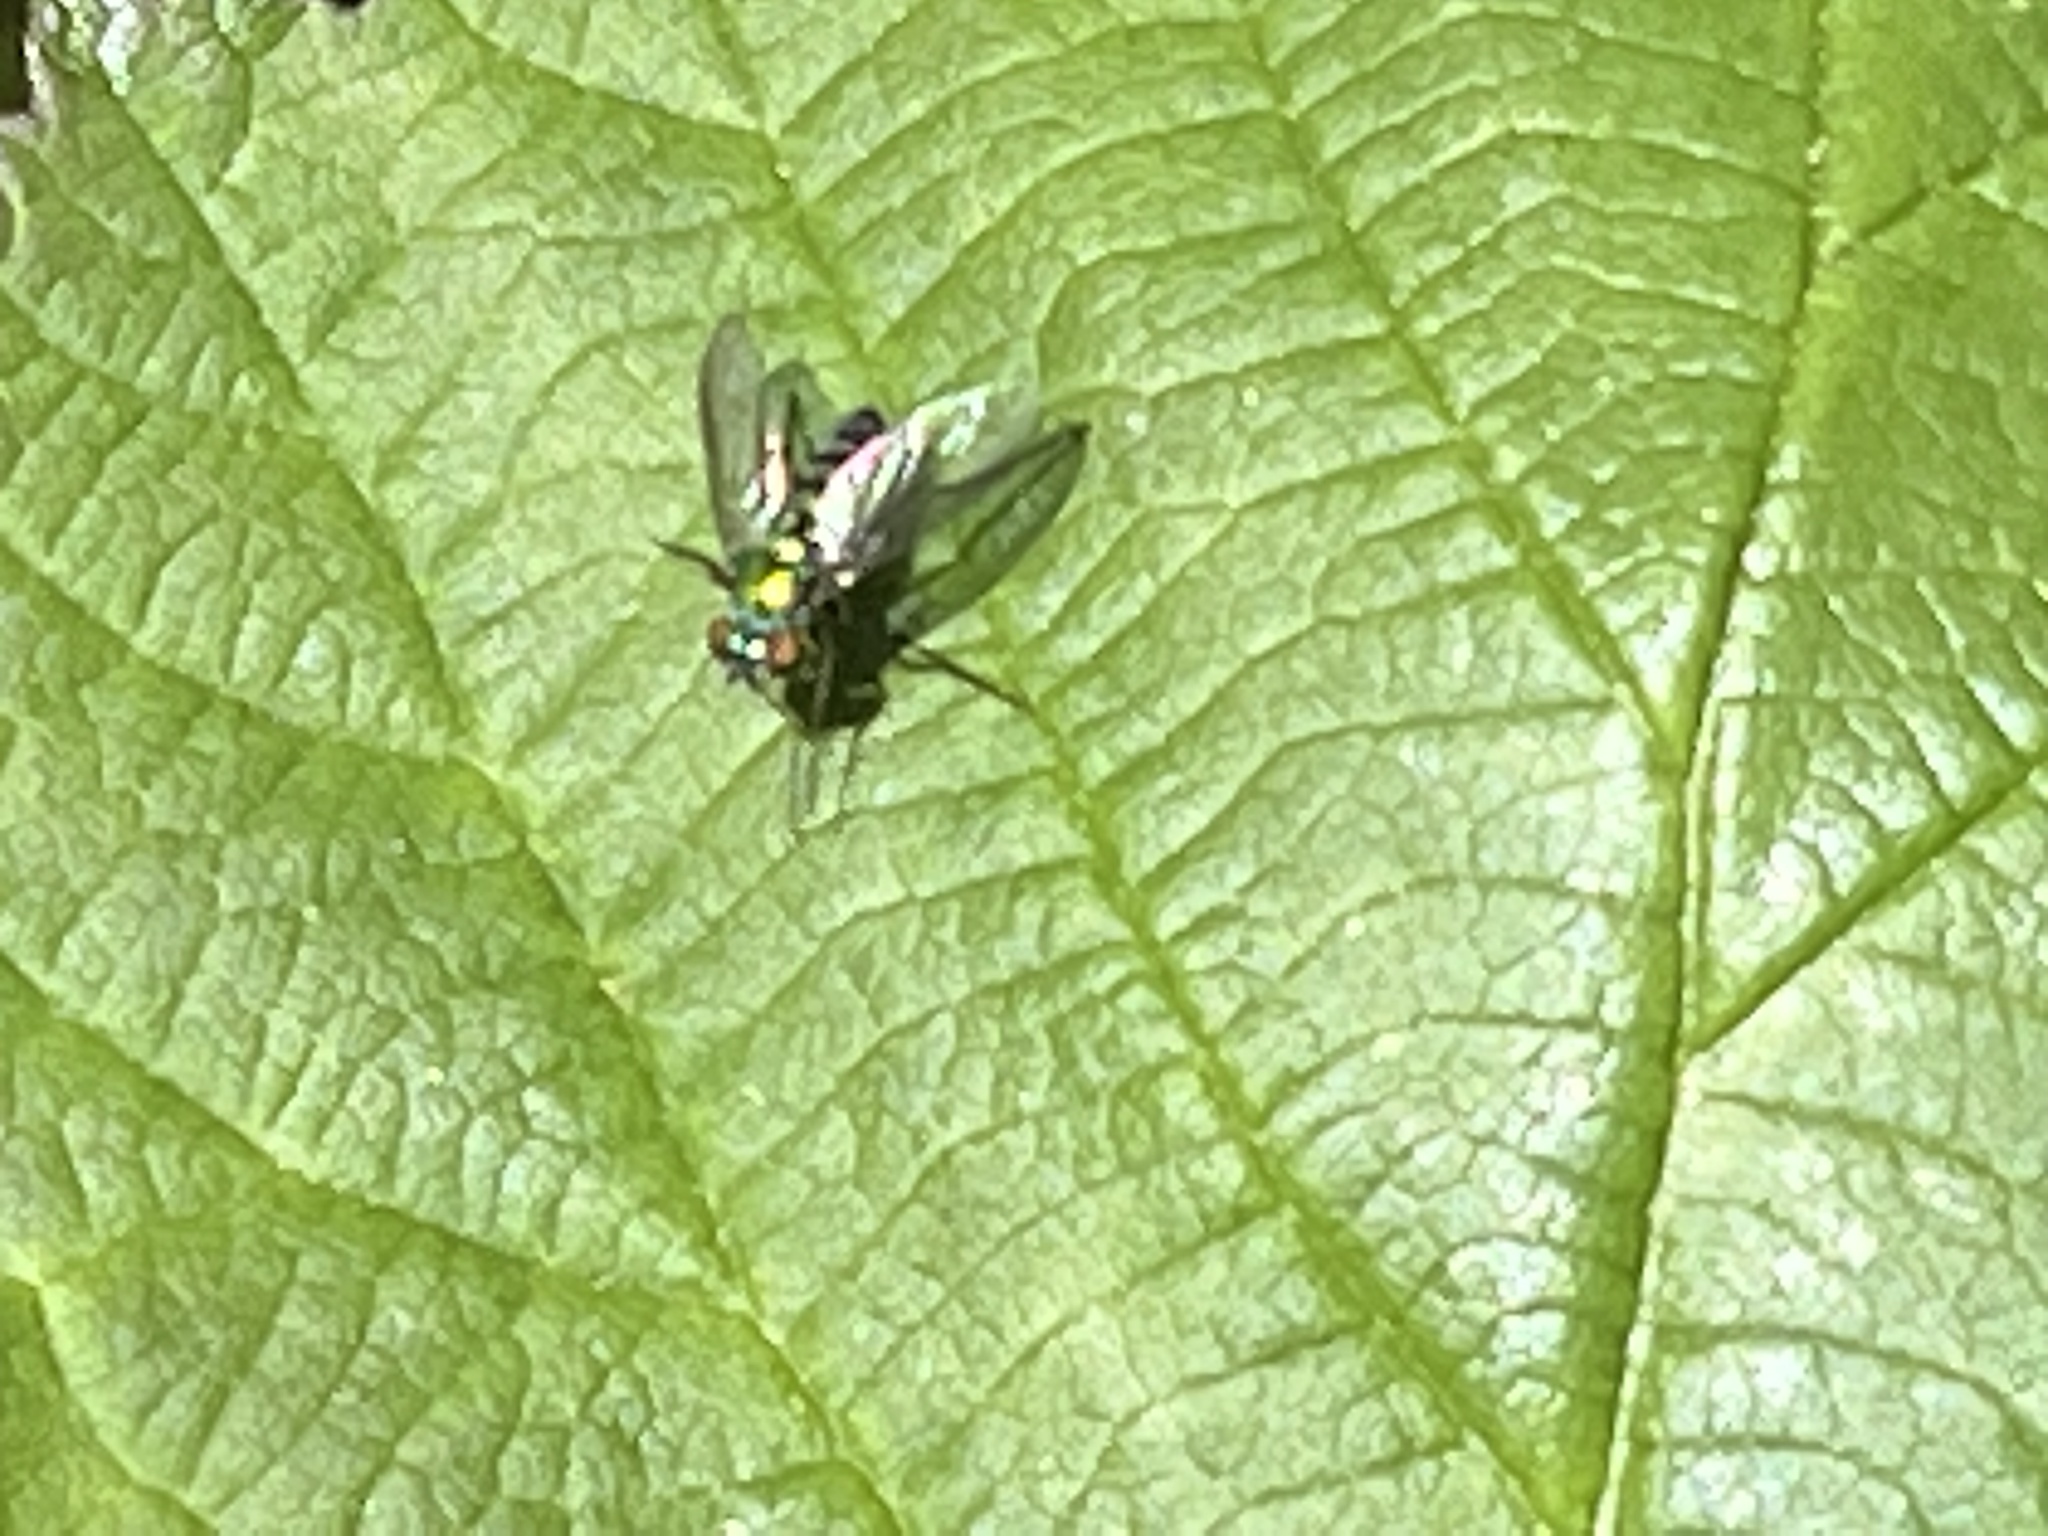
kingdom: Animalia
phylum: Arthropoda
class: Insecta
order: Diptera
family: Dolichopodidae
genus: Condylostylus
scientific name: Condylostylus longicornis
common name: Long-legged fly
